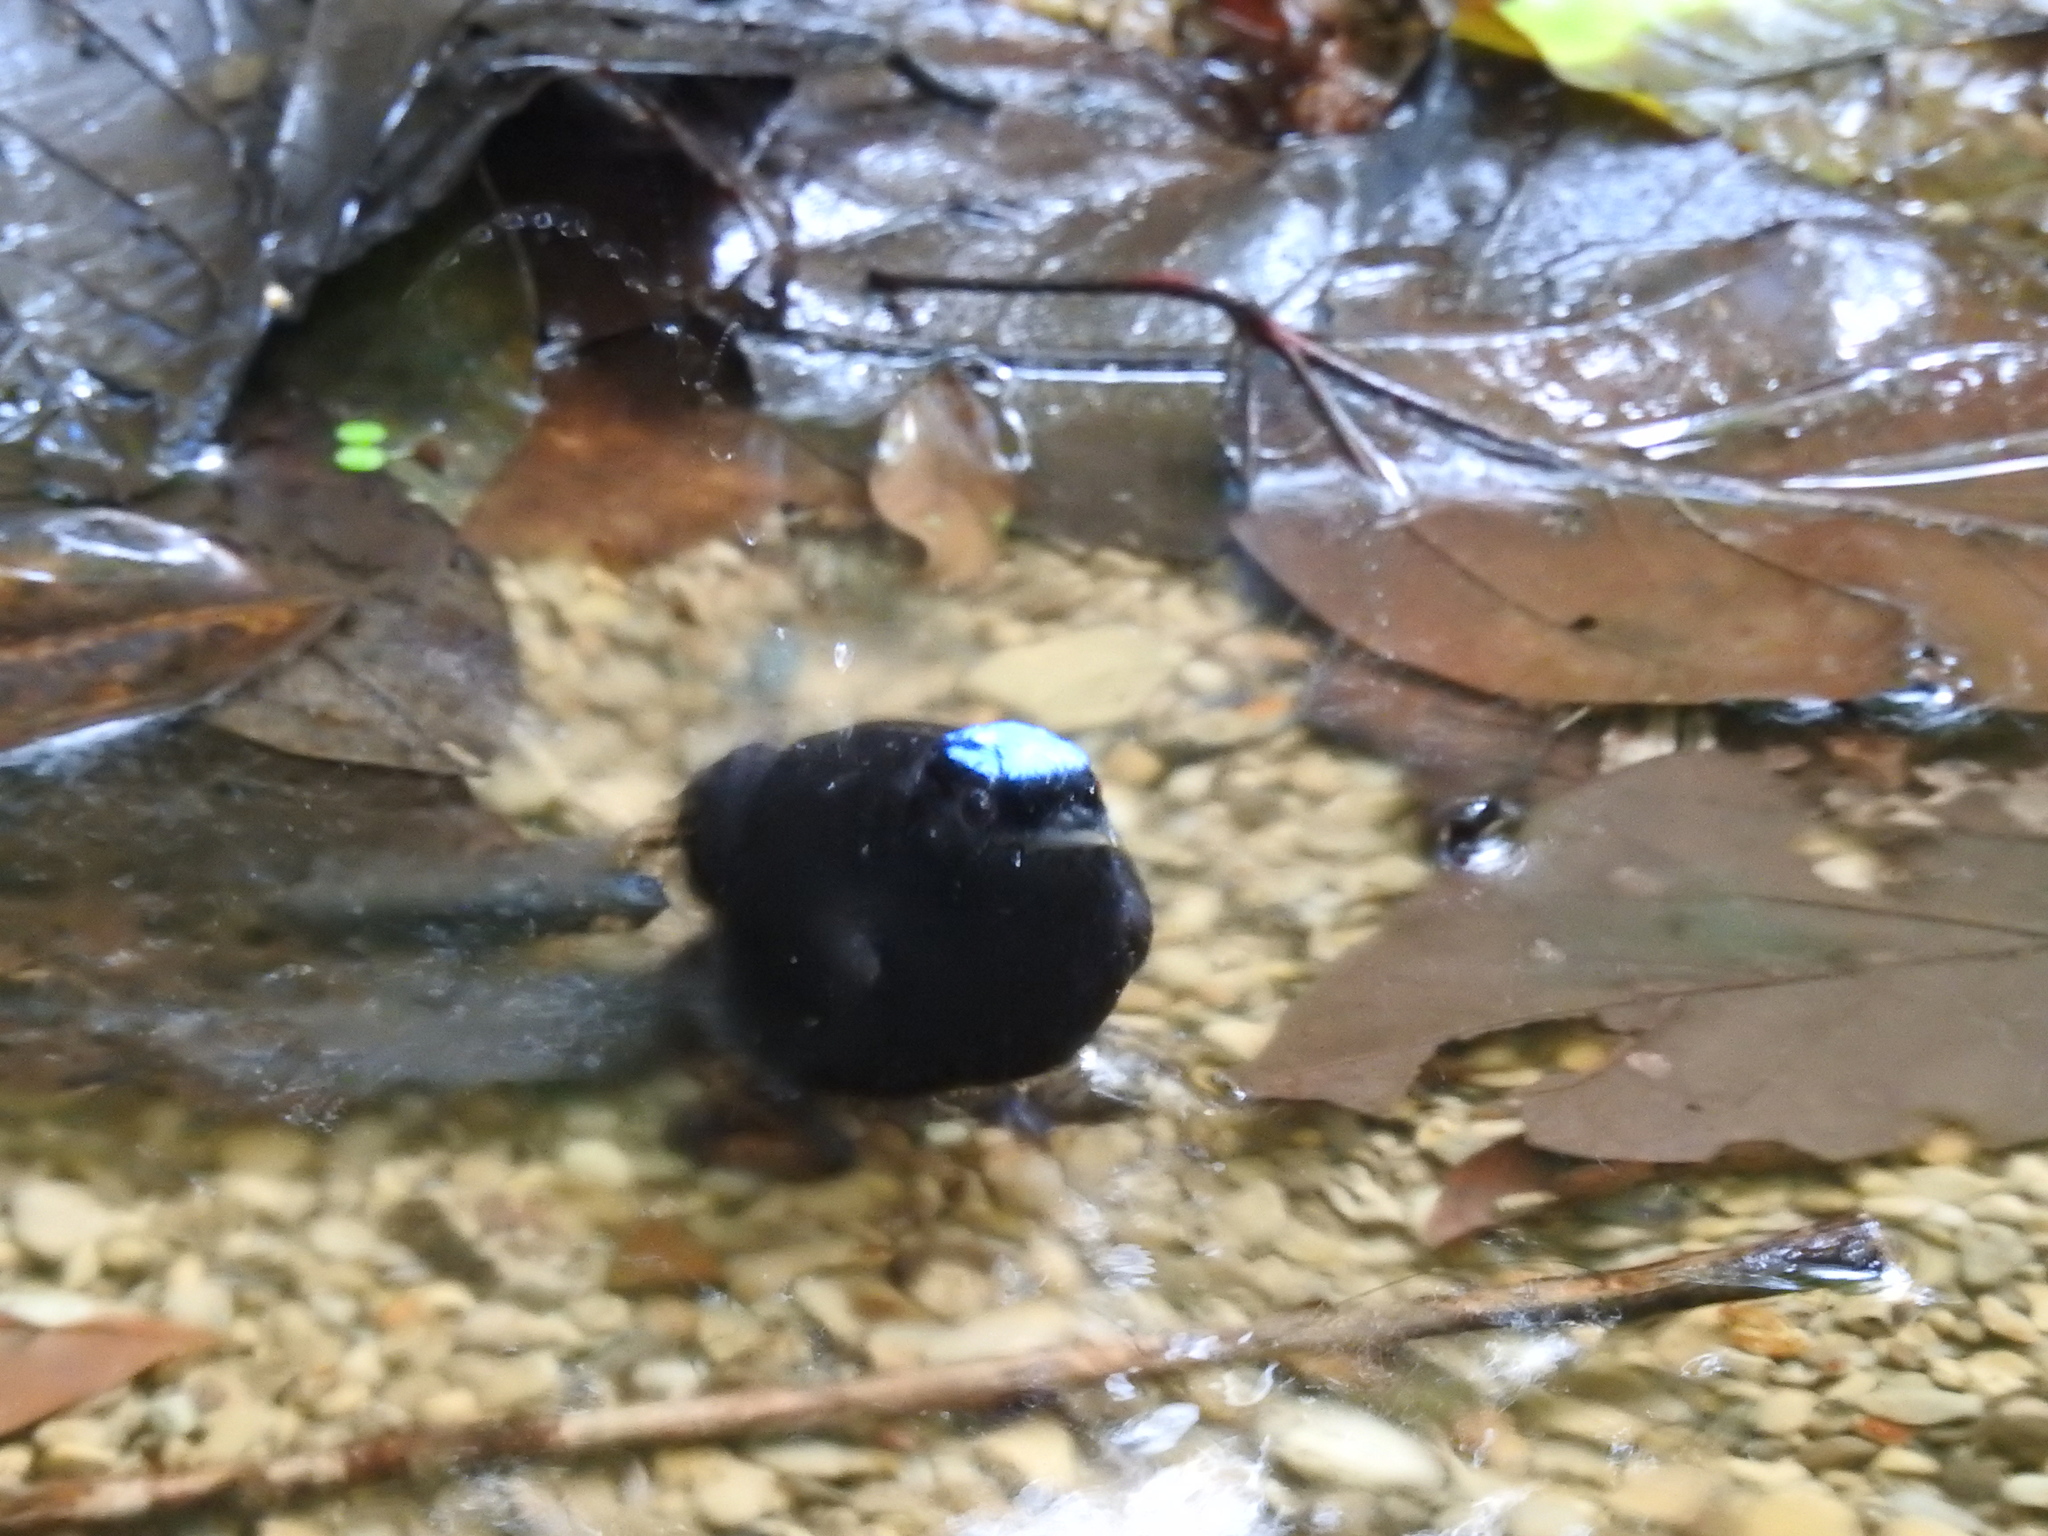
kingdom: Animalia
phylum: Chordata
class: Aves
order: Passeriformes
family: Pipridae
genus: Lepidothrix
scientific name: Lepidothrix coronata
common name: Blue-crowned manakin
